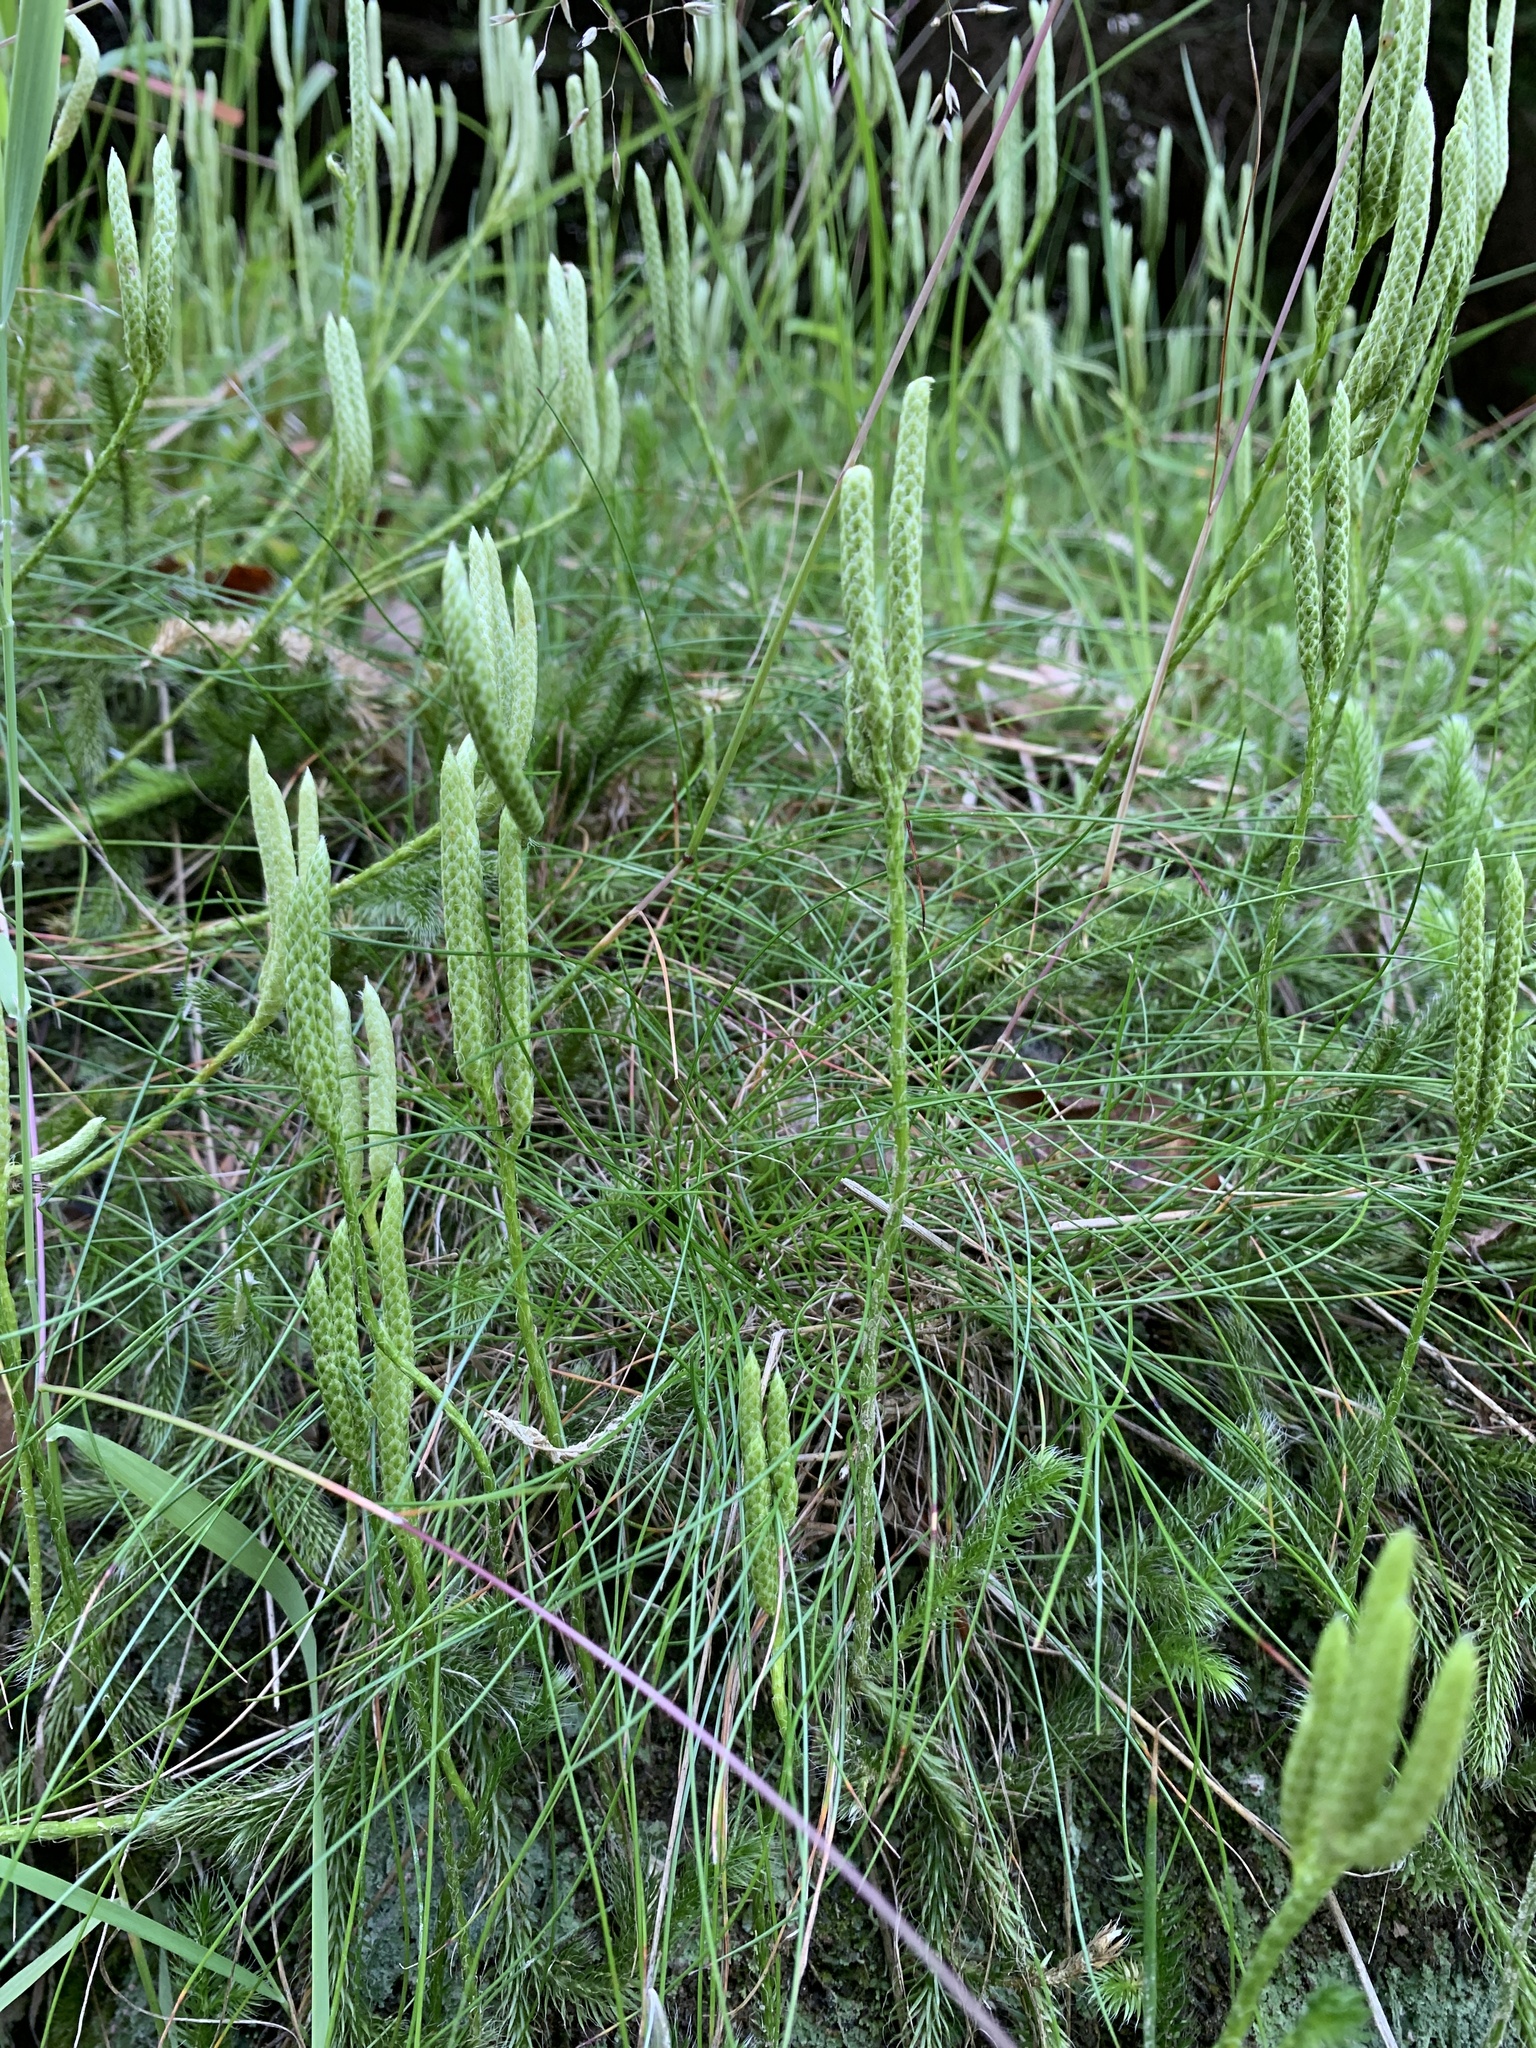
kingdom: Plantae
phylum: Tracheophyta
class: Lycopodiopsida
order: Lycopodiales
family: Lycopodiaceae
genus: Lycopodium
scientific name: Lycopodium clavatum
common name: Stag's-horn clubmoss
